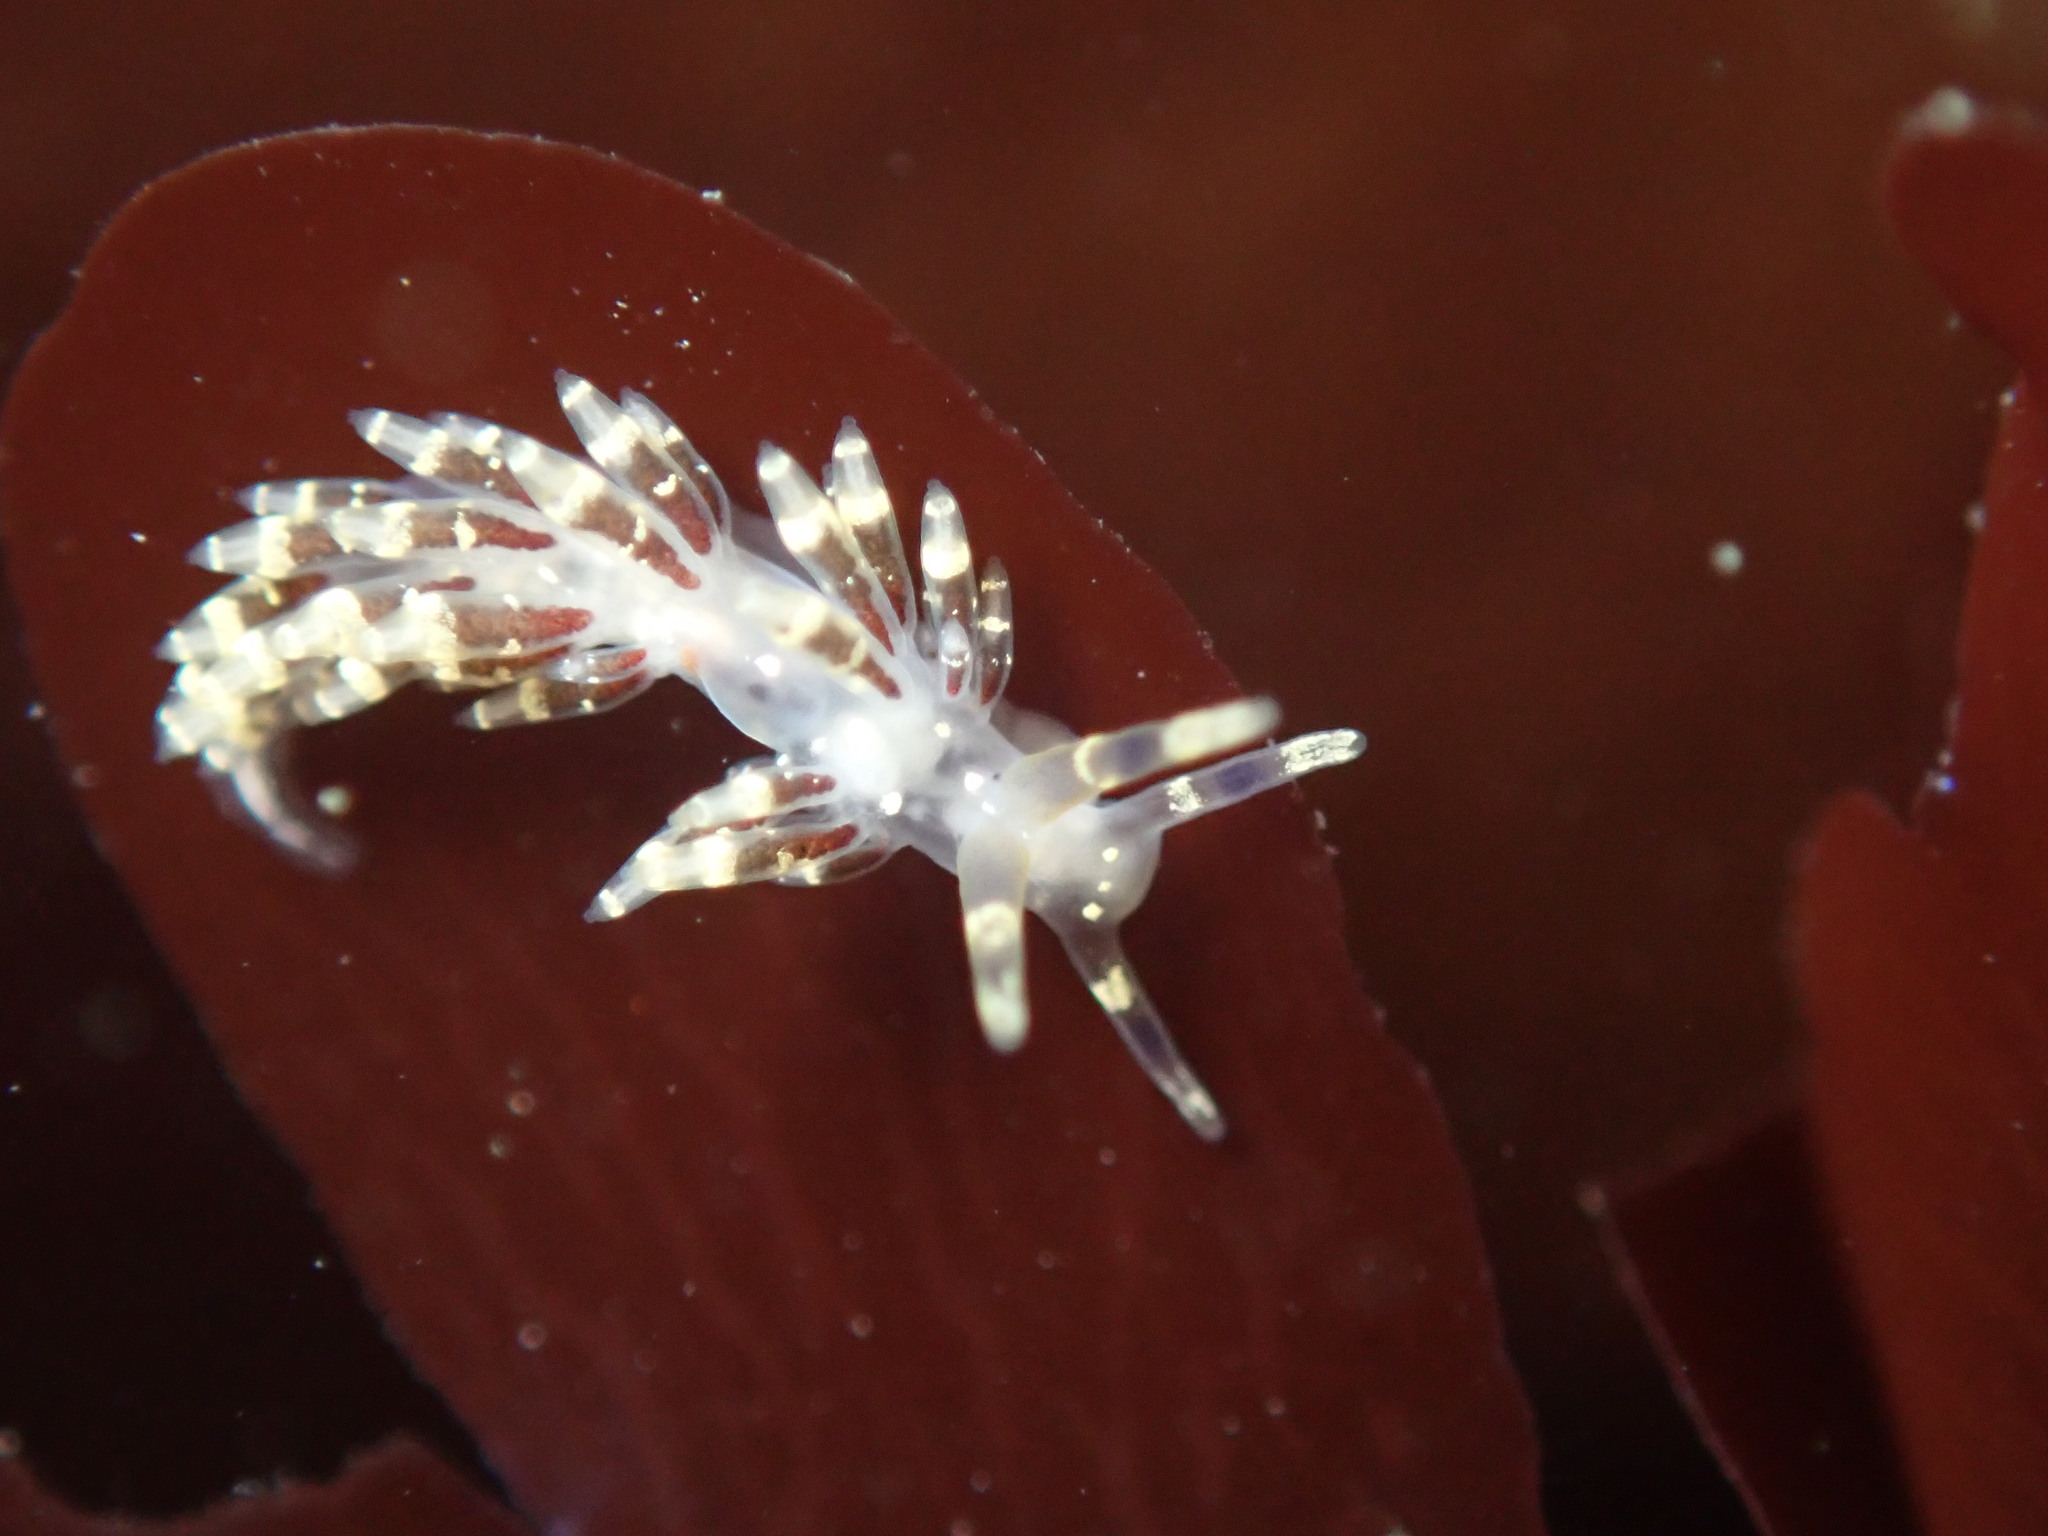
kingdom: Animalia
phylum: Mollusca
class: Gastropoda
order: Nudibranchia
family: Abronicidae
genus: Abronica
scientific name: Abronica abronia
